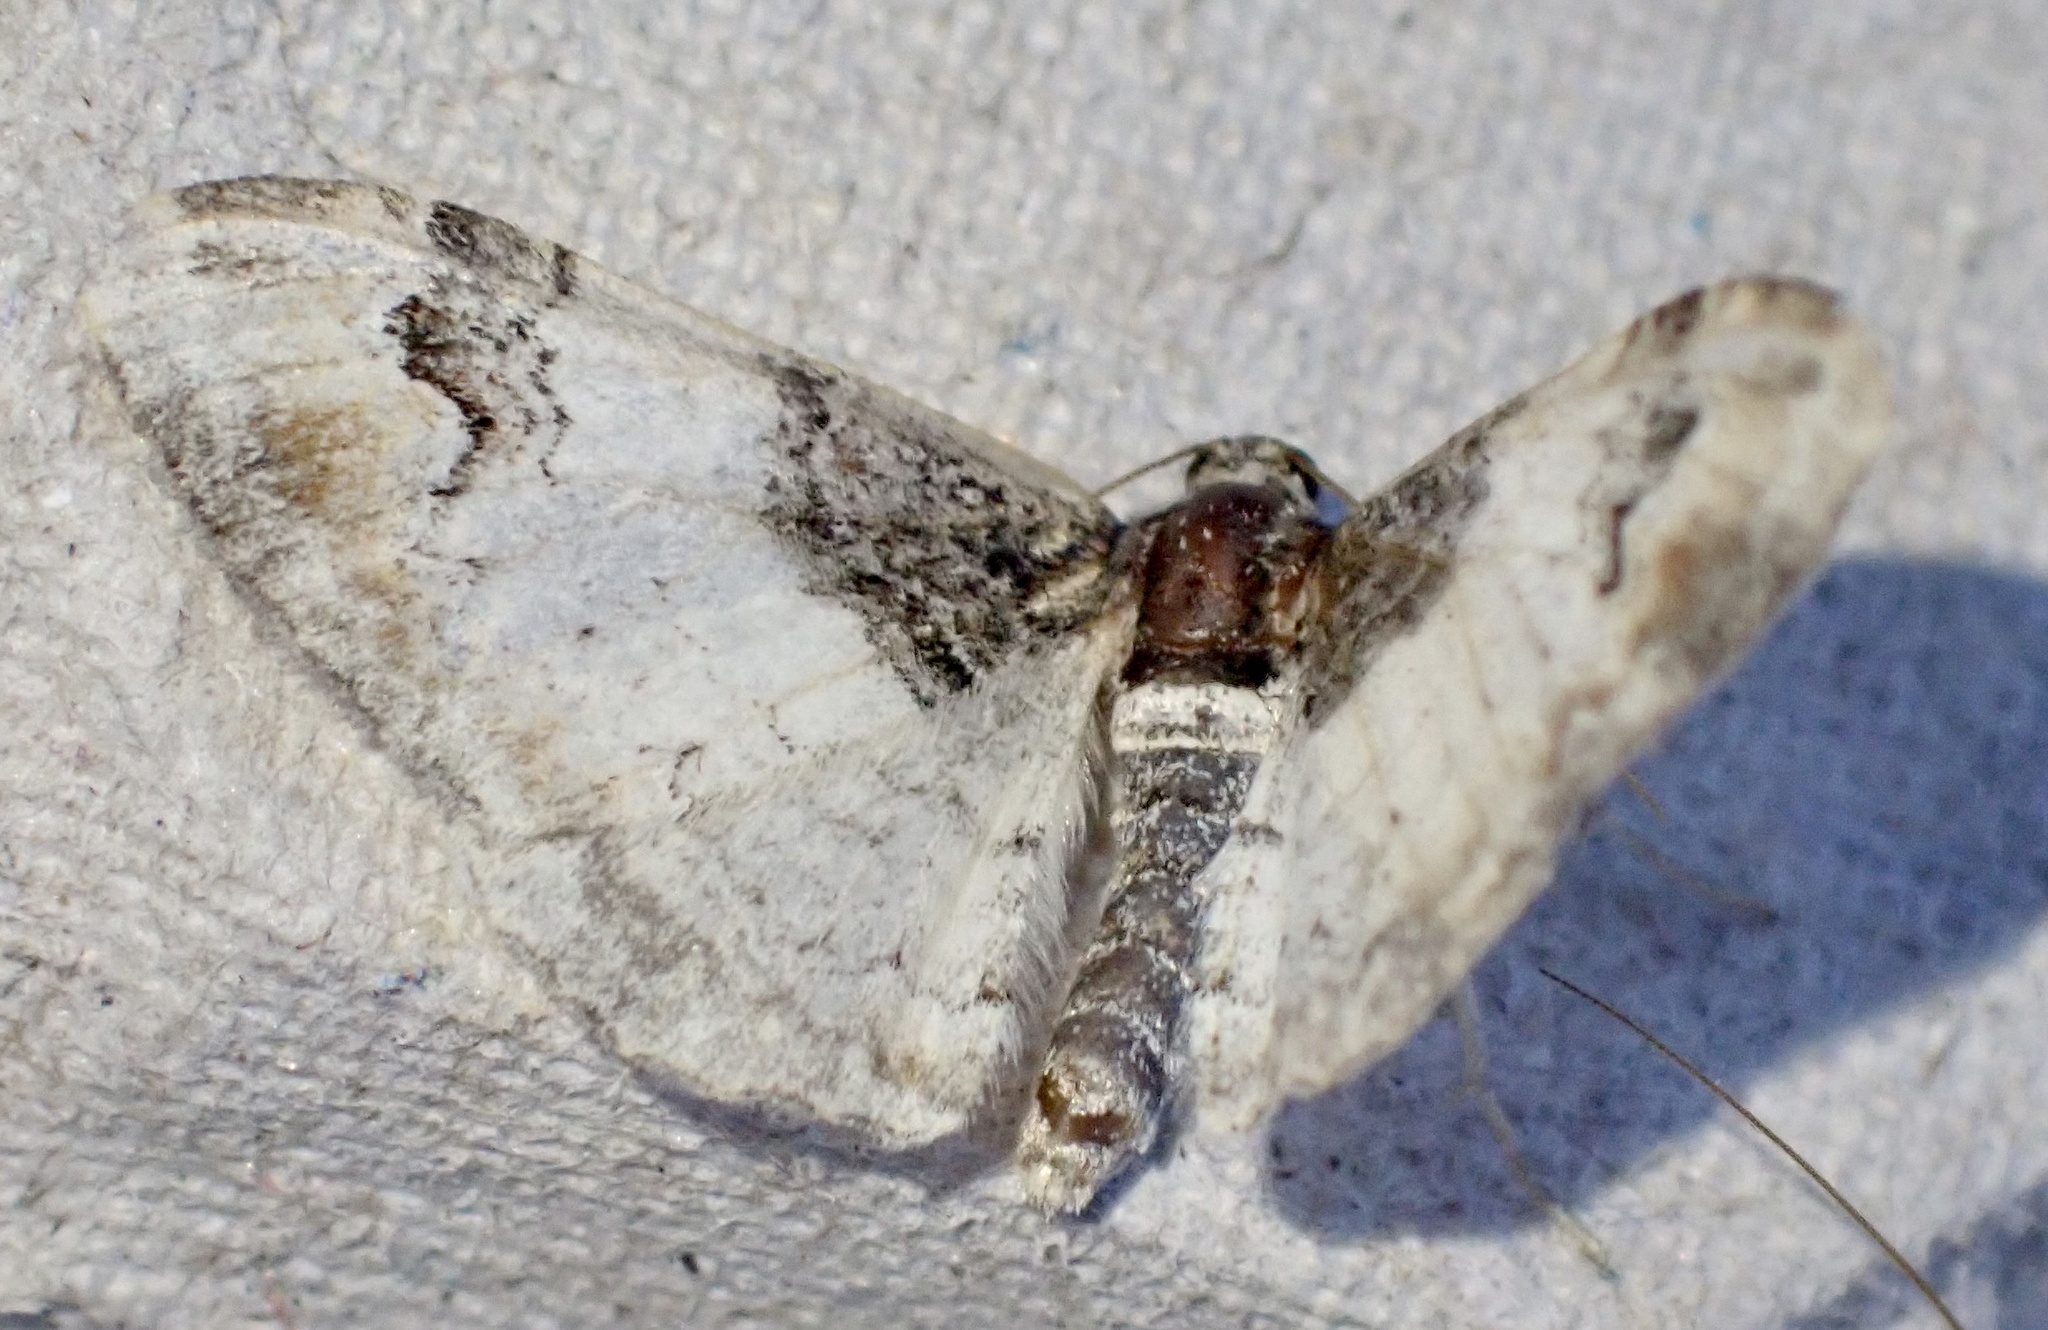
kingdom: Animalia
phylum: Arthropoda
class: Insecta
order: Lepidoptera
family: Geometridae
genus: Catarhoe
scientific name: Catarhoe cuculata
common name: Royal mantle
